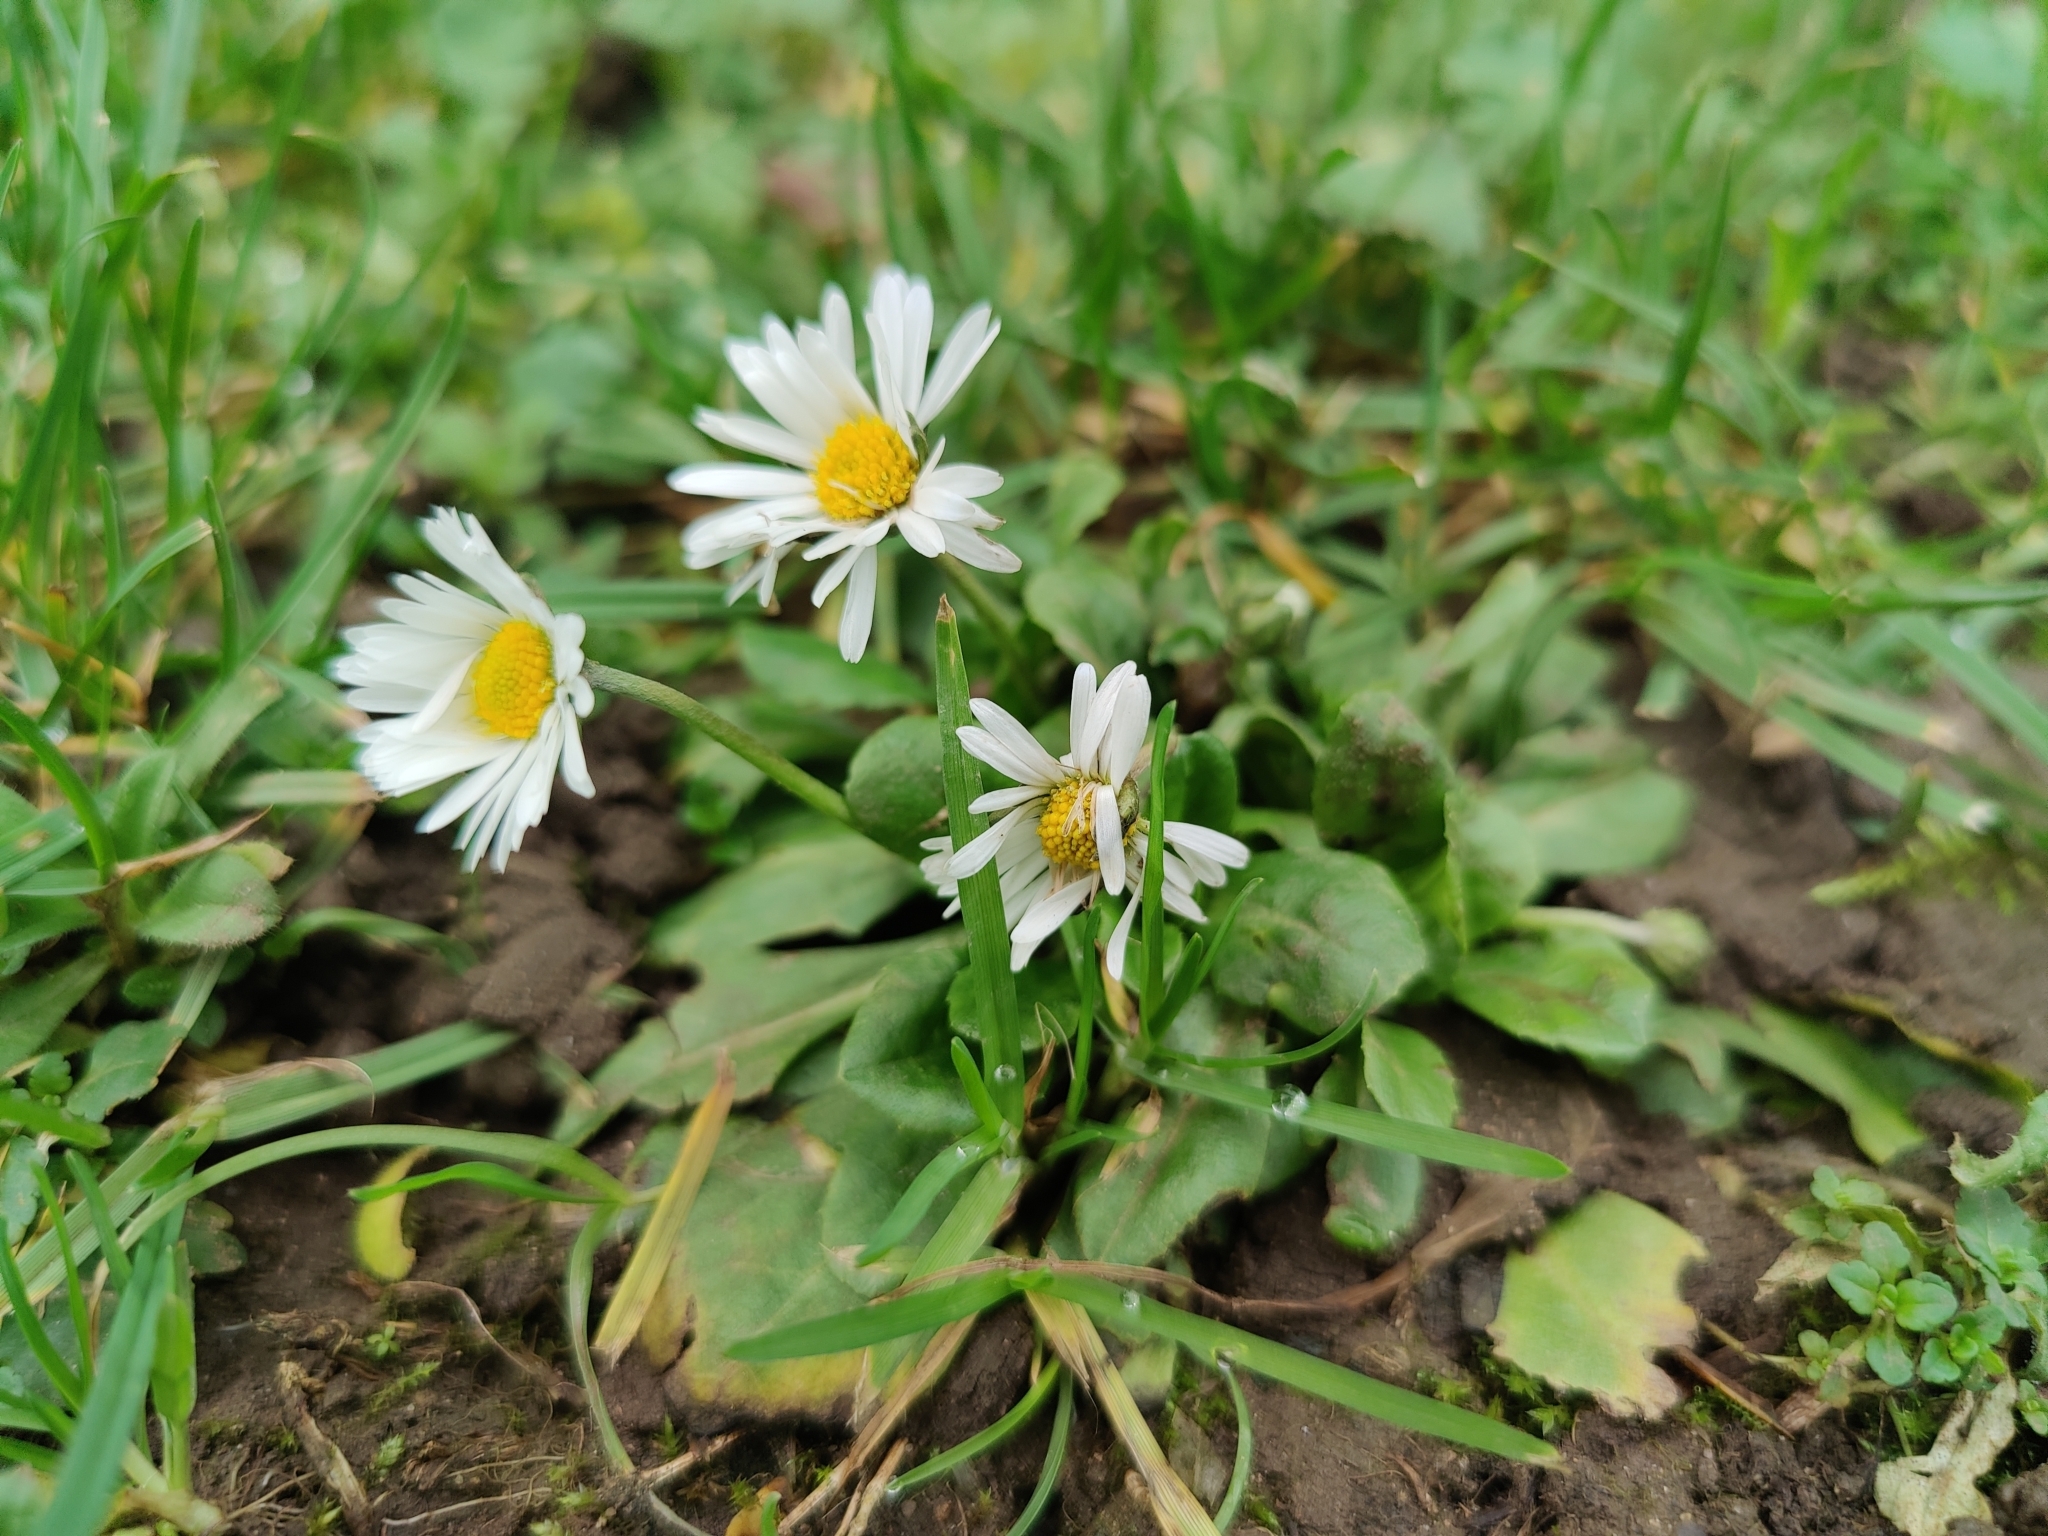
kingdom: Plantae
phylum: Tracheophyta
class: Magnoliopsida
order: Asterales
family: Asteraceae
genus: Bellis
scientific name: Bellis perennis
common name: Lawndaisy
